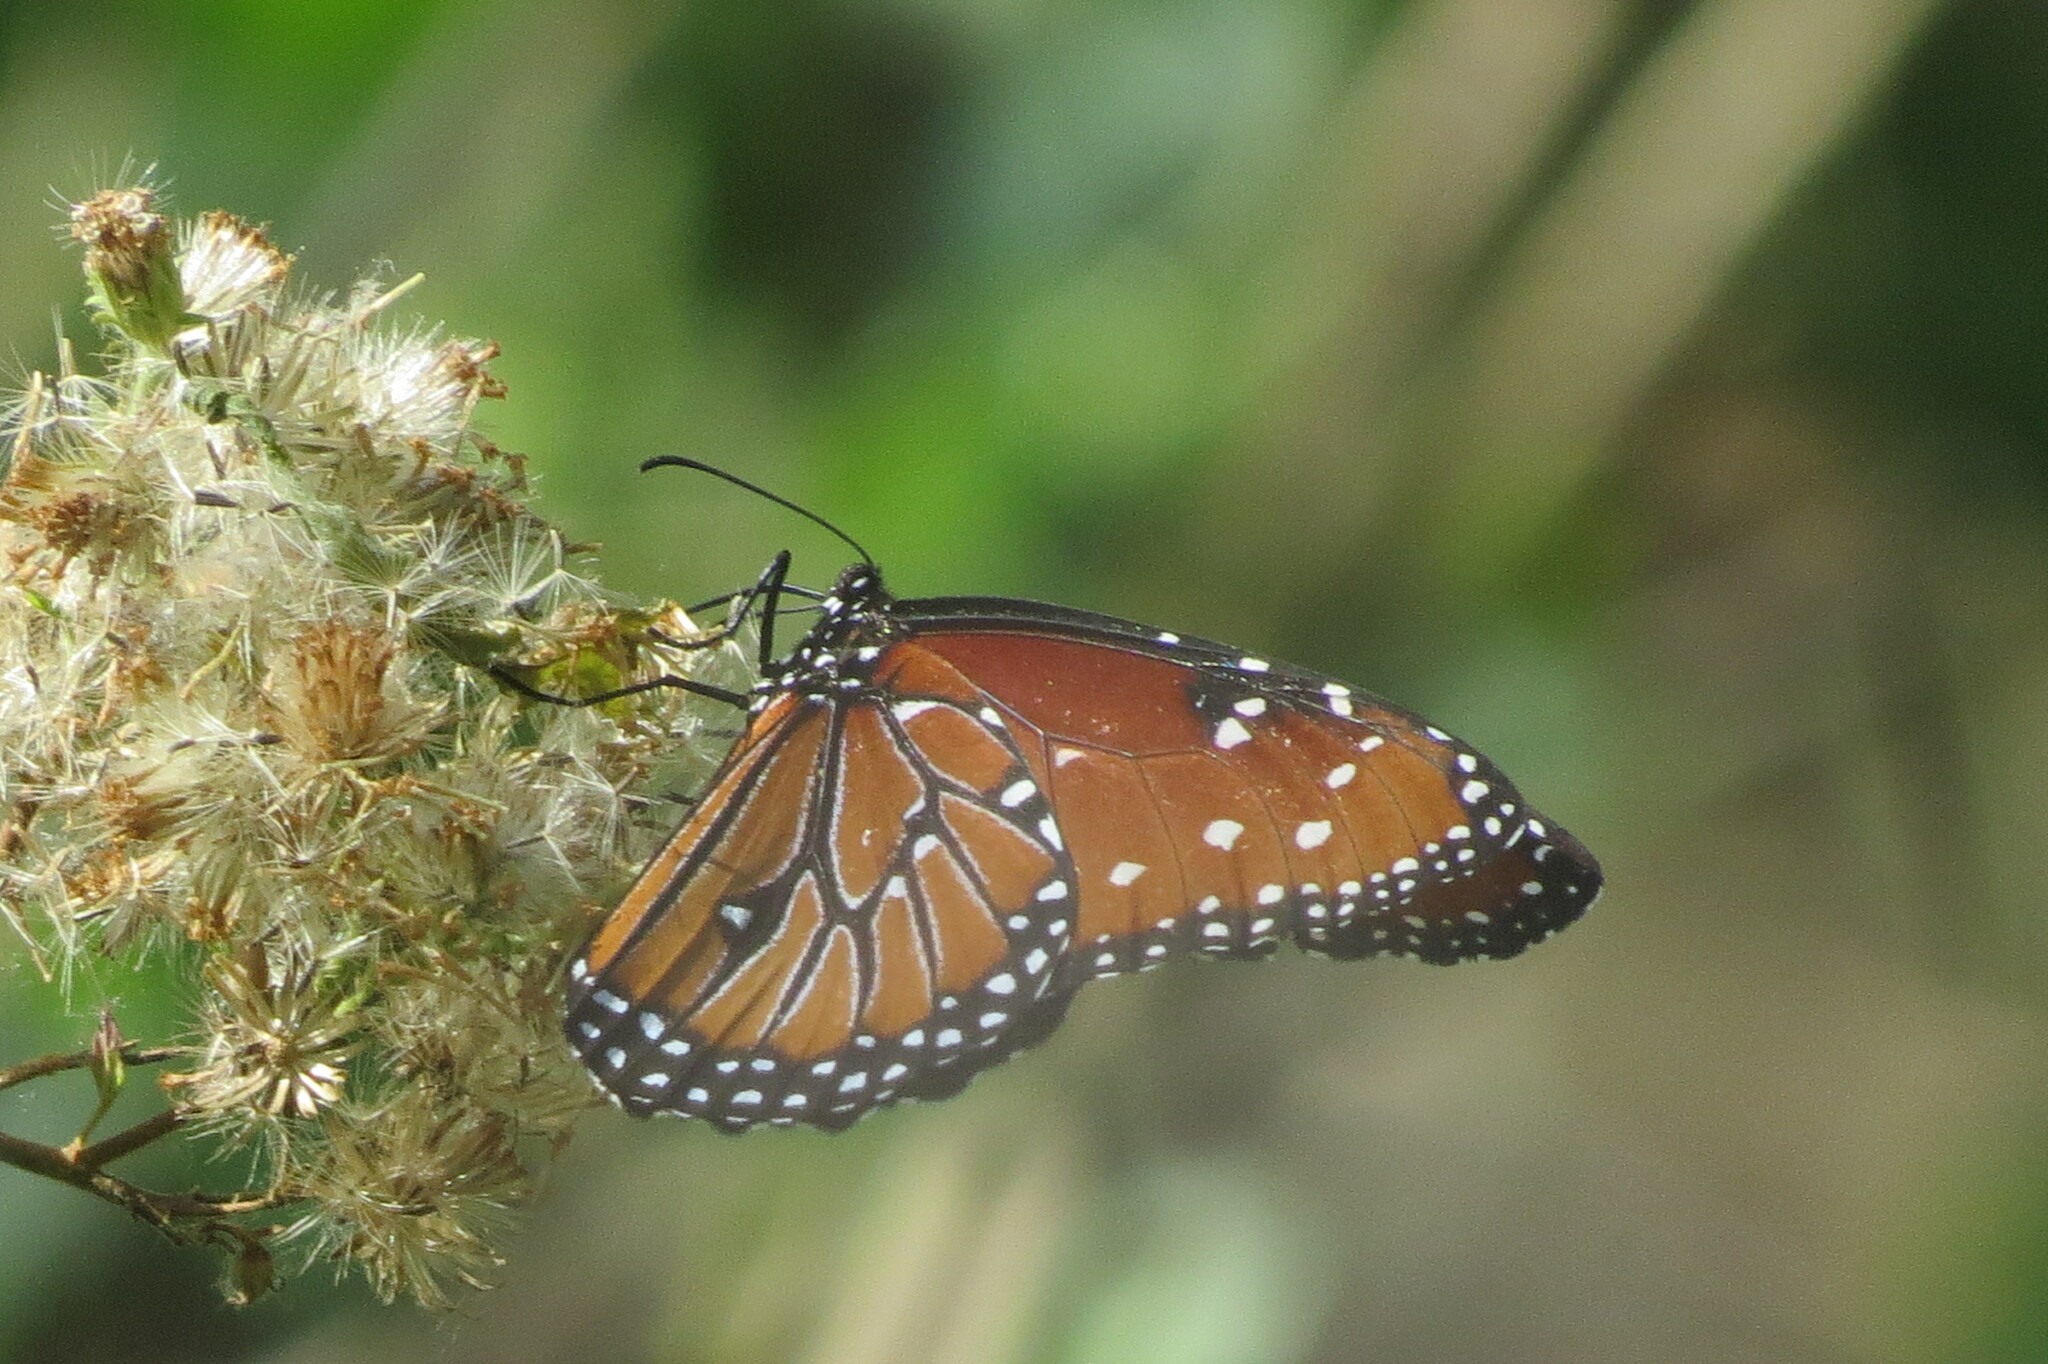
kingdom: Animalia
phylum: Arthropoda
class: Insecta
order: Lepidoptera
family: Nymphalidae
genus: Danaus
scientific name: Danaus gilippus
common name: Queen
